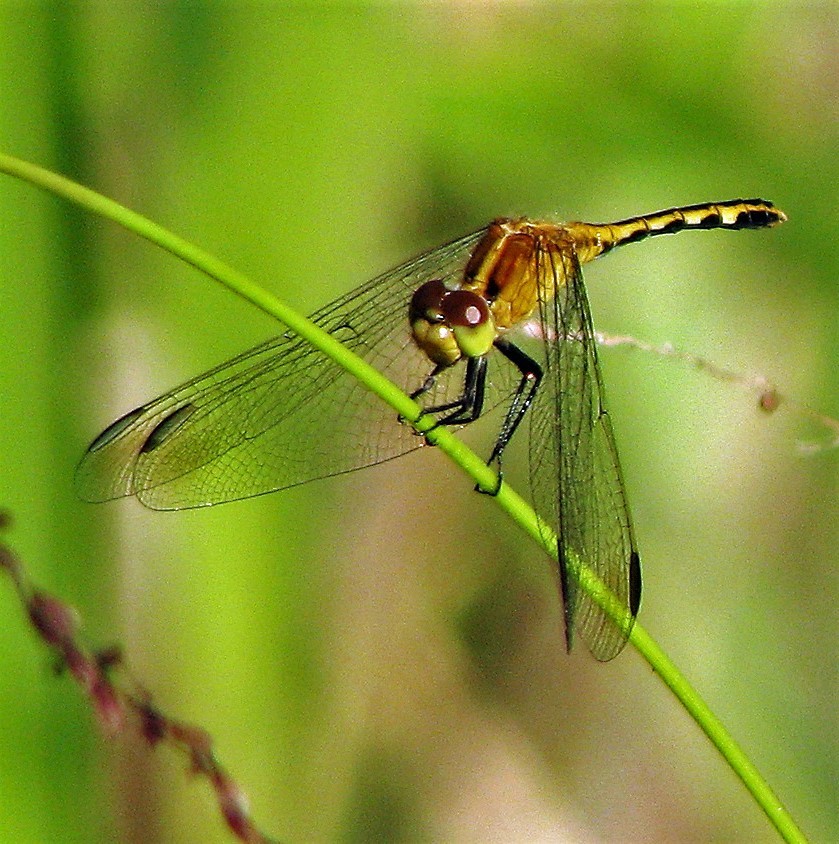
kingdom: Animalia
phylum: Arthropoda
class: Insecta
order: Odonata
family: Libellulidae
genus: Erythrodiplax
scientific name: Erythrodiplax nigricans
